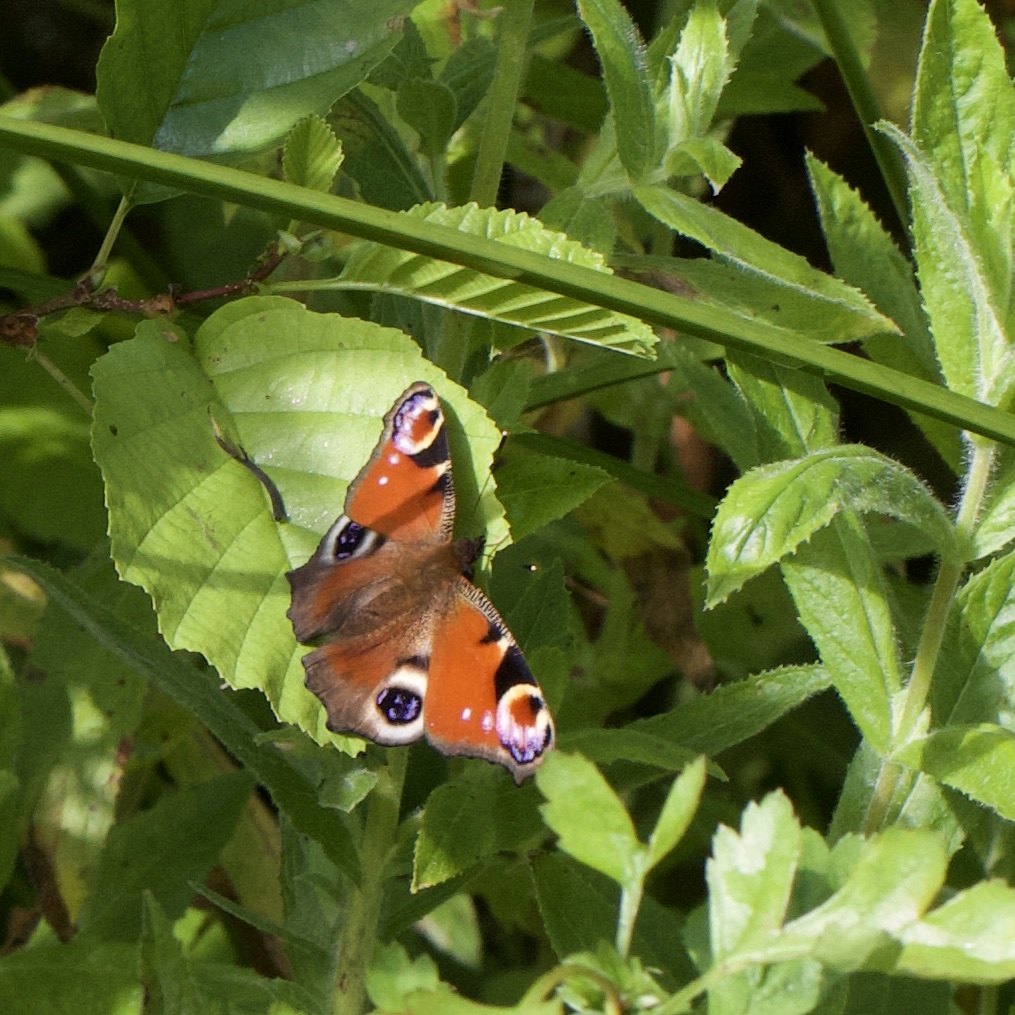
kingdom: Animalia
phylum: Arthropoda
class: Insecta
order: Lepidoptera
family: Nymphalidae
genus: Aglais
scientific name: Aglais io
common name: Peacock
